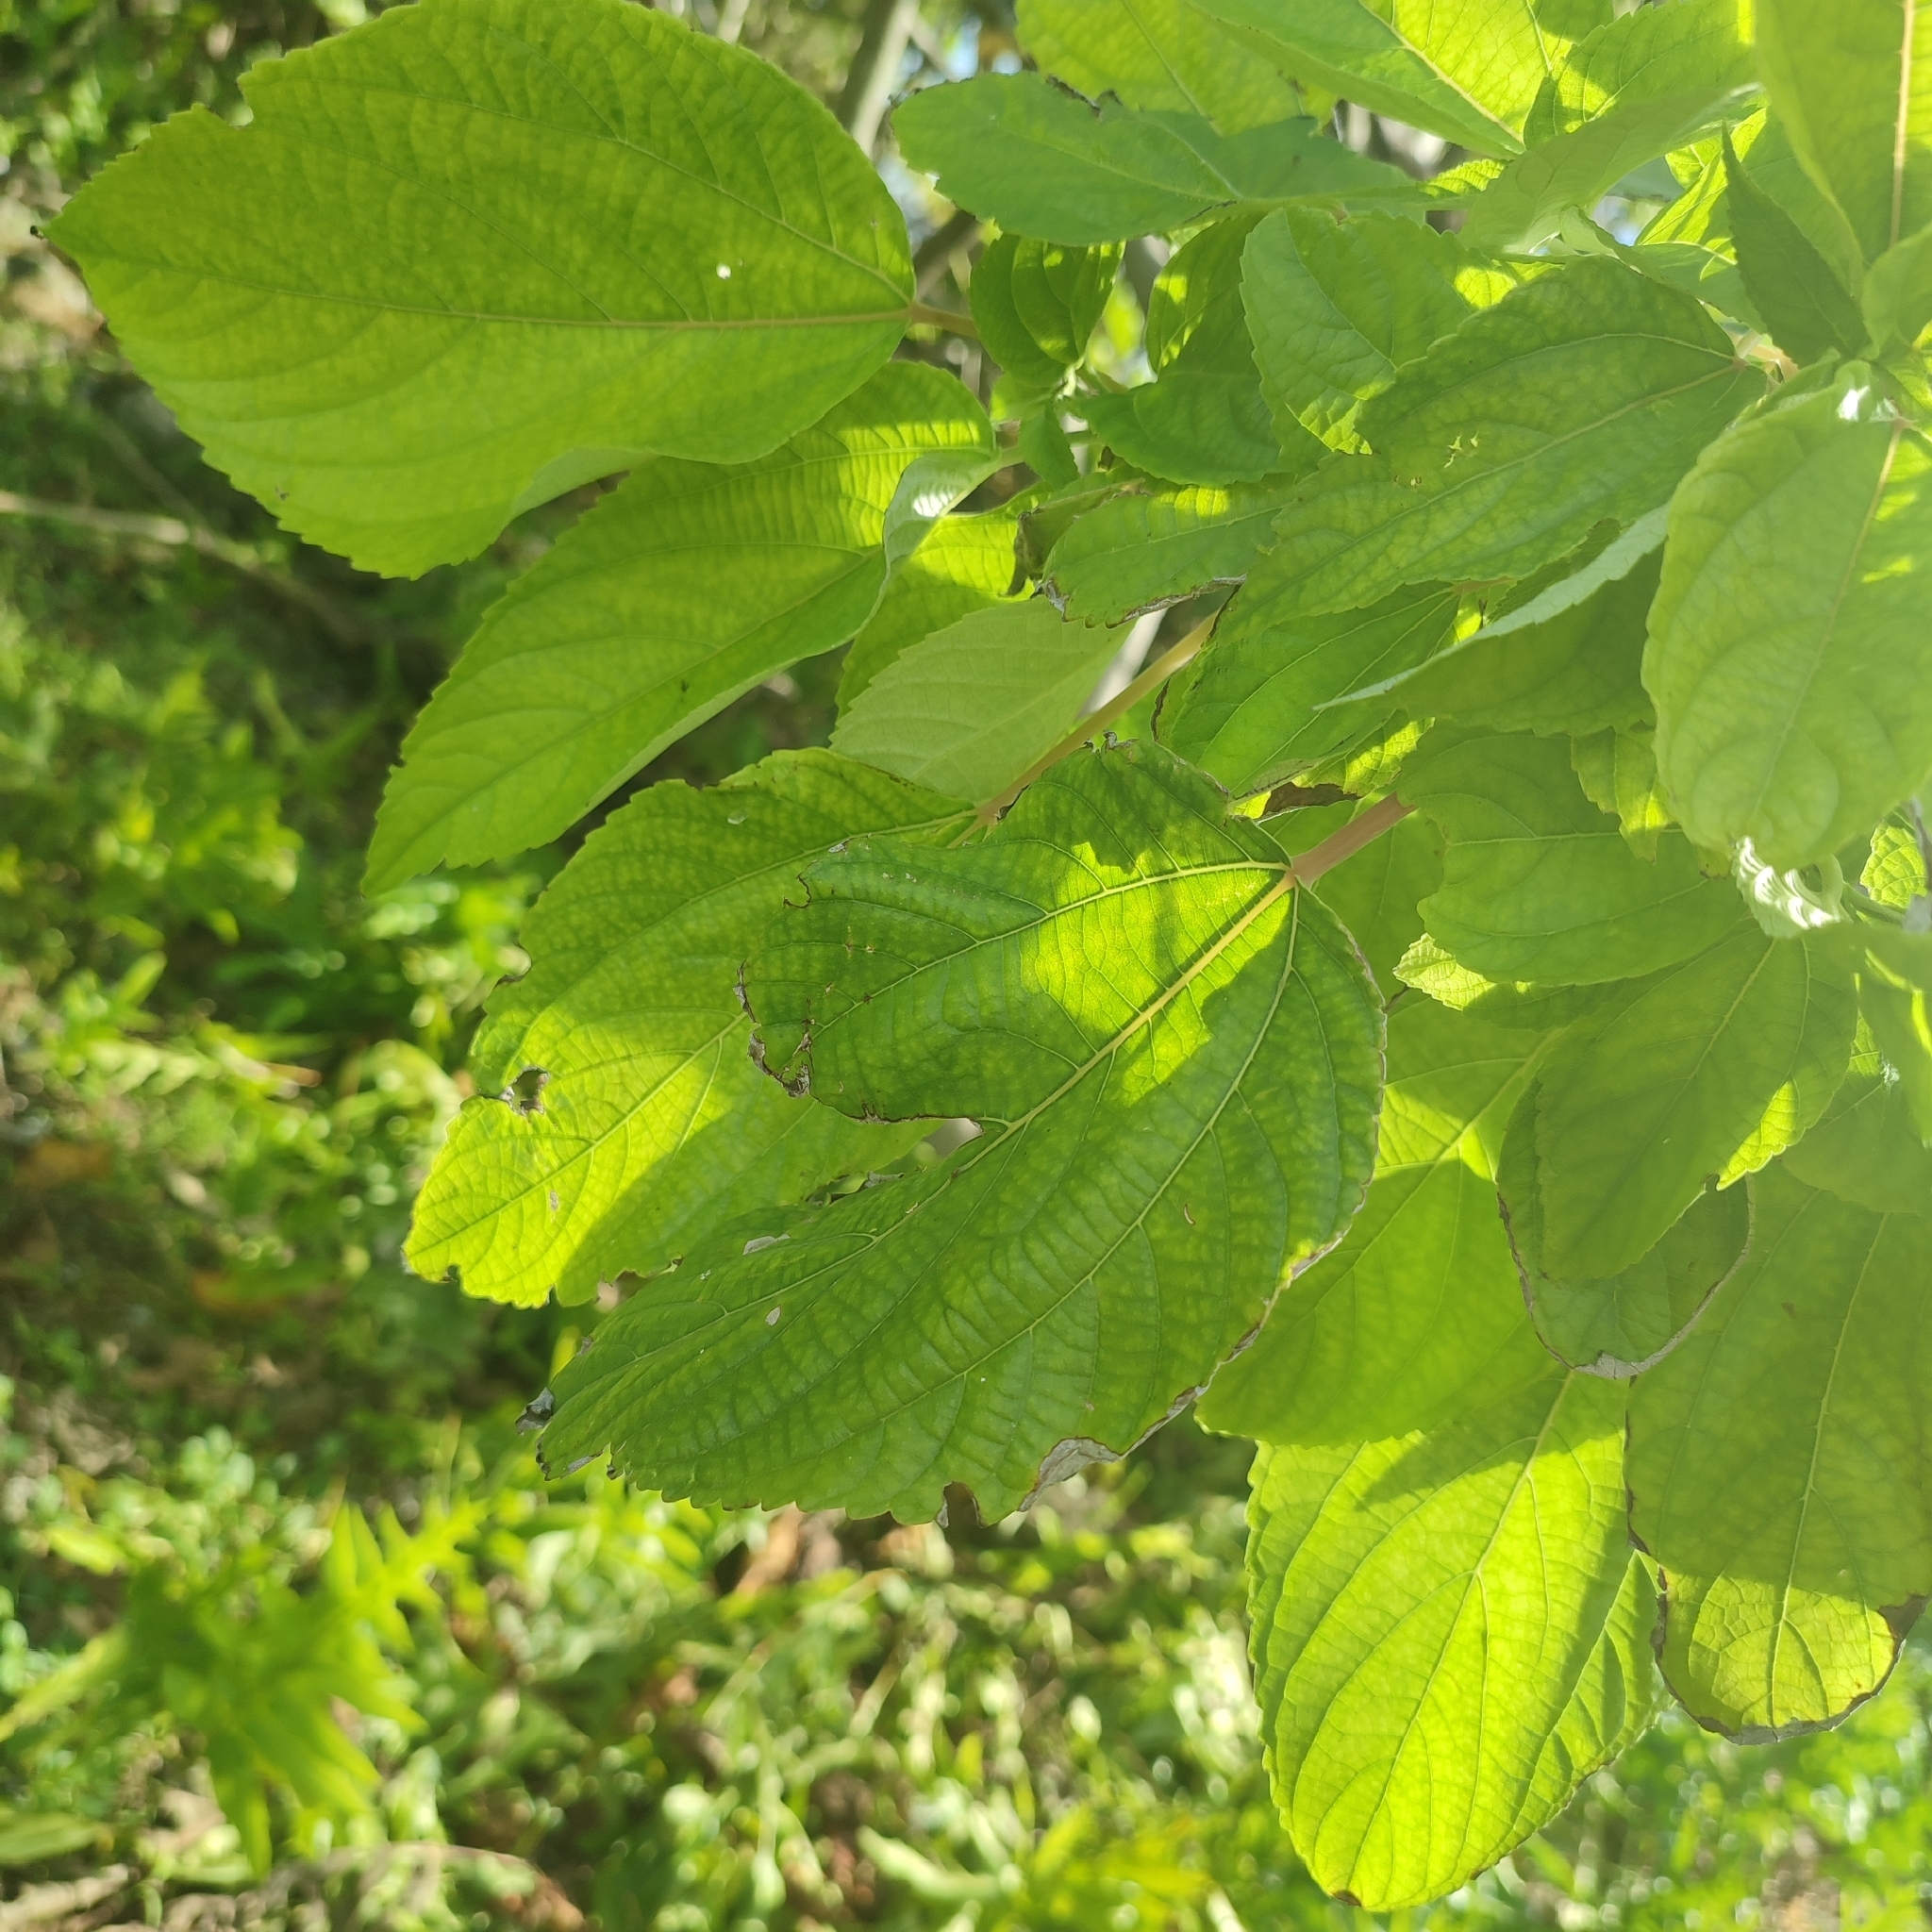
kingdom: Plantae
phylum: Tracheophyta
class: Magnoliopsida
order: Rosales
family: Urticaceae
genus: Pipturus
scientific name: Pipturus argenteus
